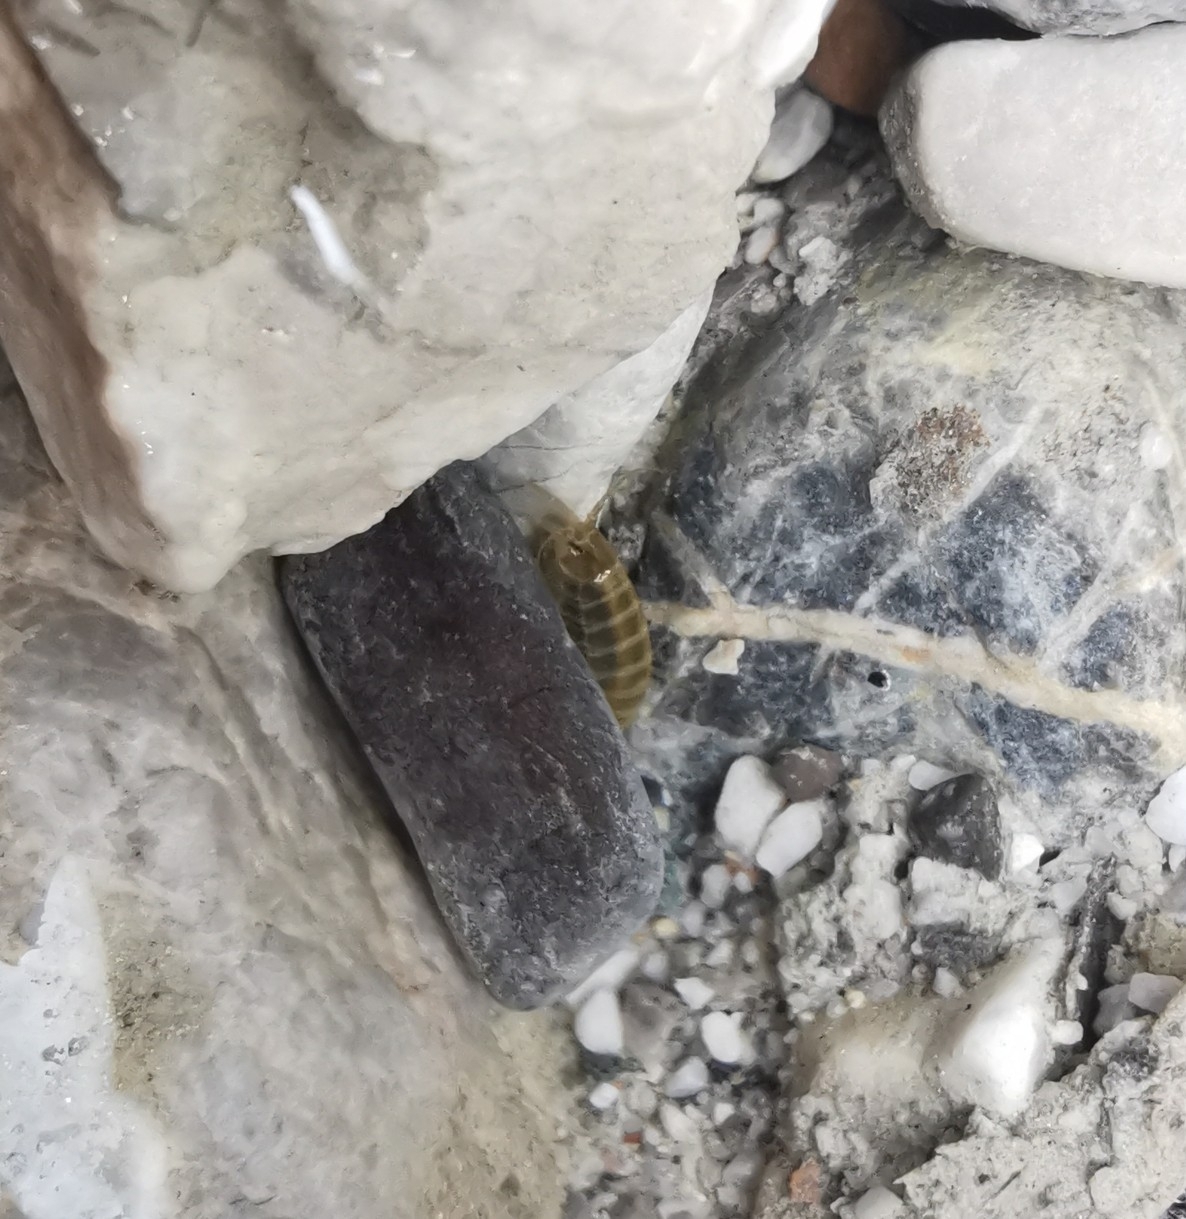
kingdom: Animalia
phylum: Arthropoda
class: Malacostraca
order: Amphipoda
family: Gammaridae
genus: Gammarus
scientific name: Gammarus roeselii
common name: Lacustrine amphipod
